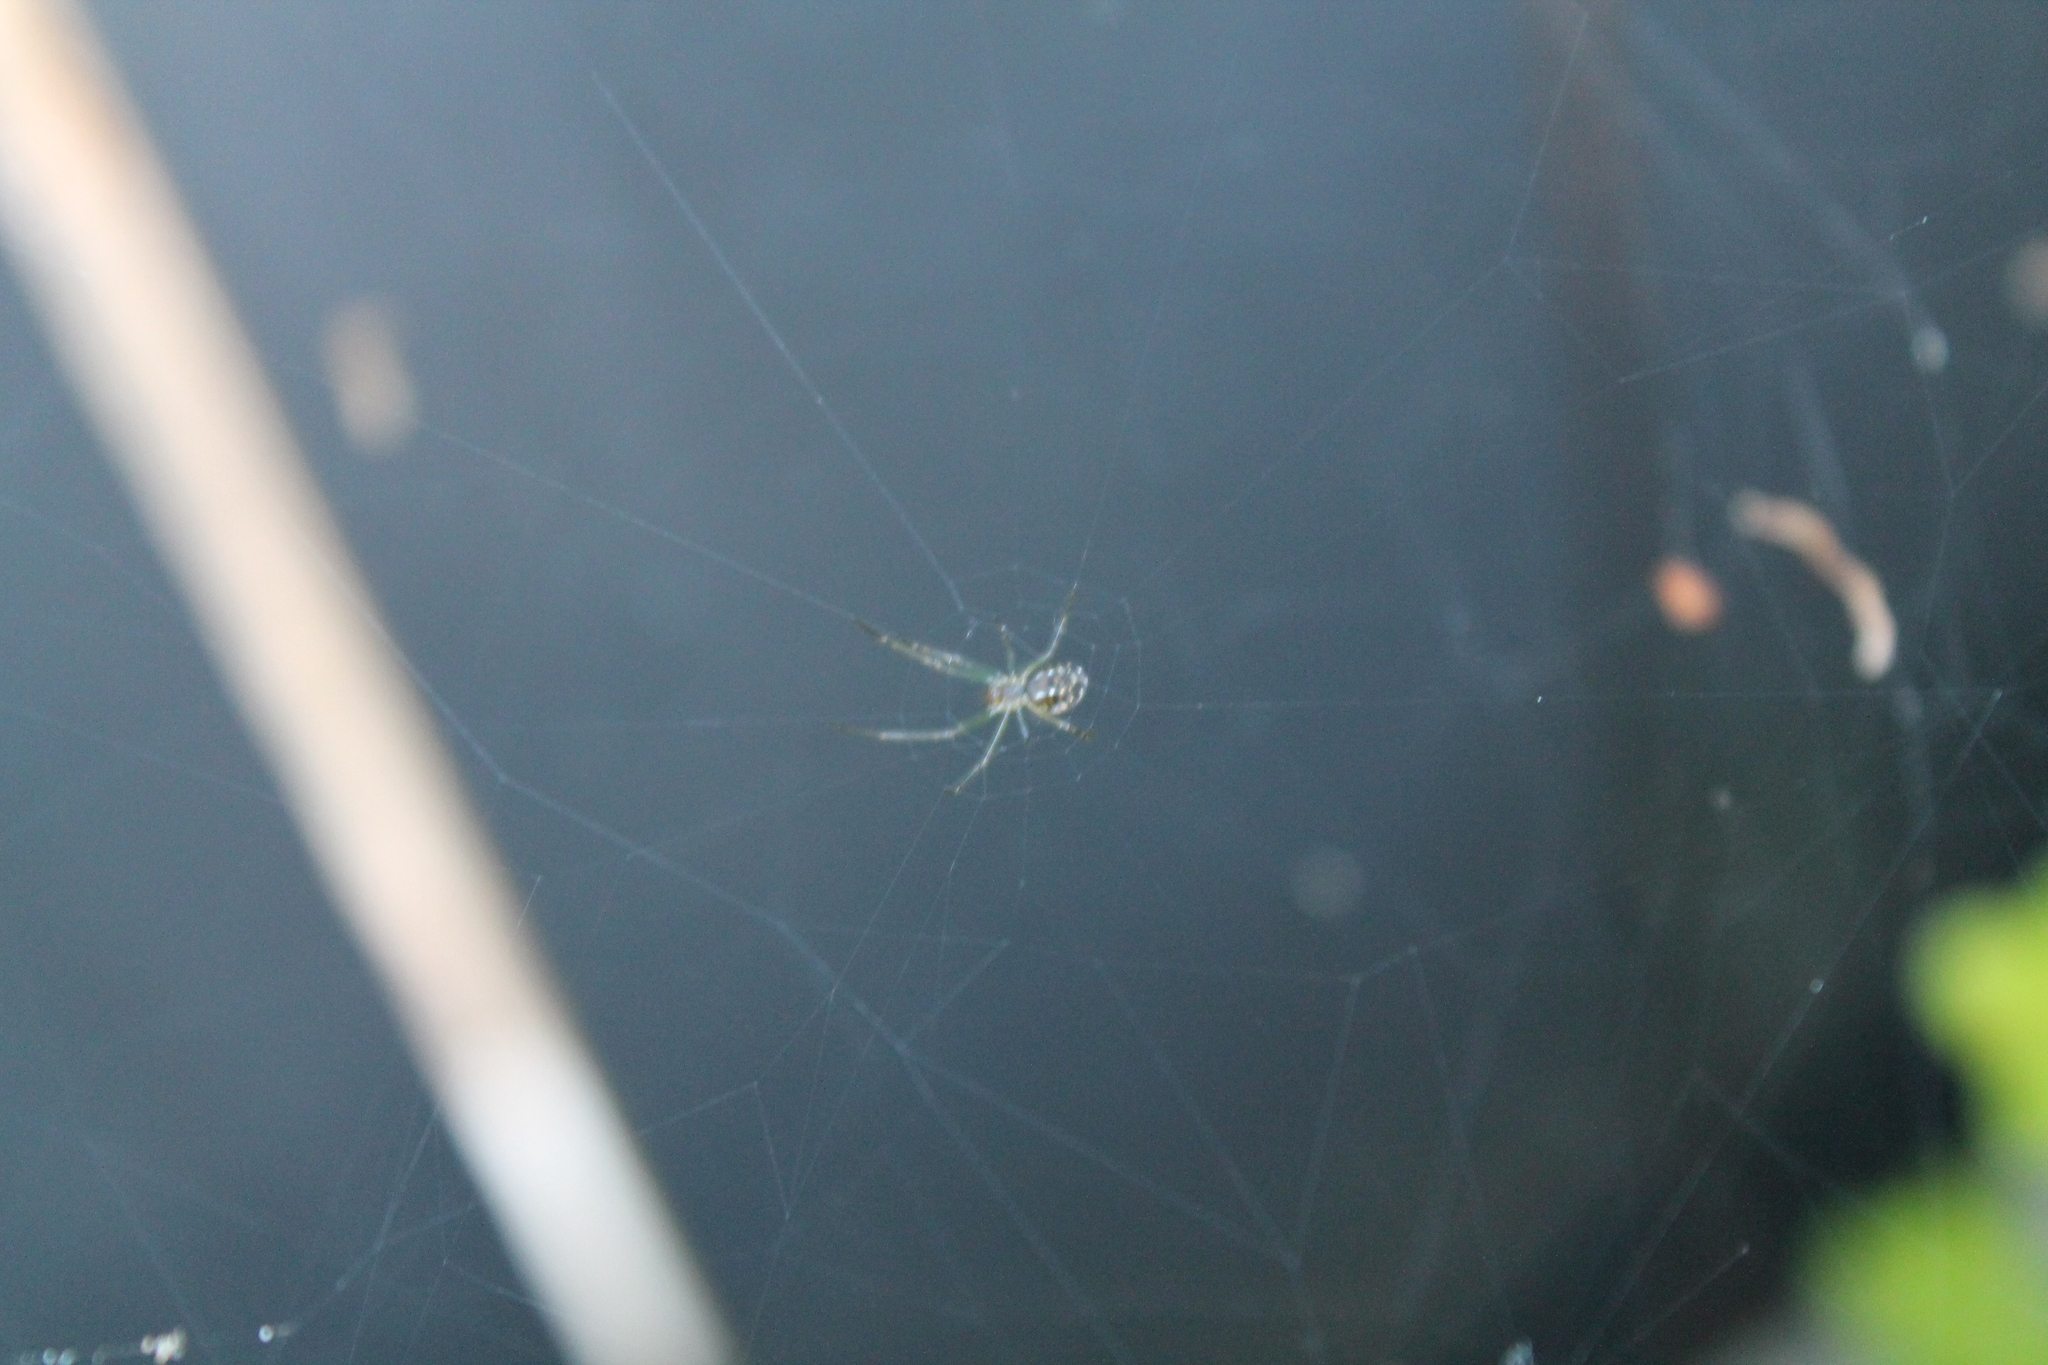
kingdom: Animalia
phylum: Arthropoda
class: Arachnida
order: Araneae
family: Tetragnathidae
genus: Leucauge
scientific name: Leucauge dromedaria
